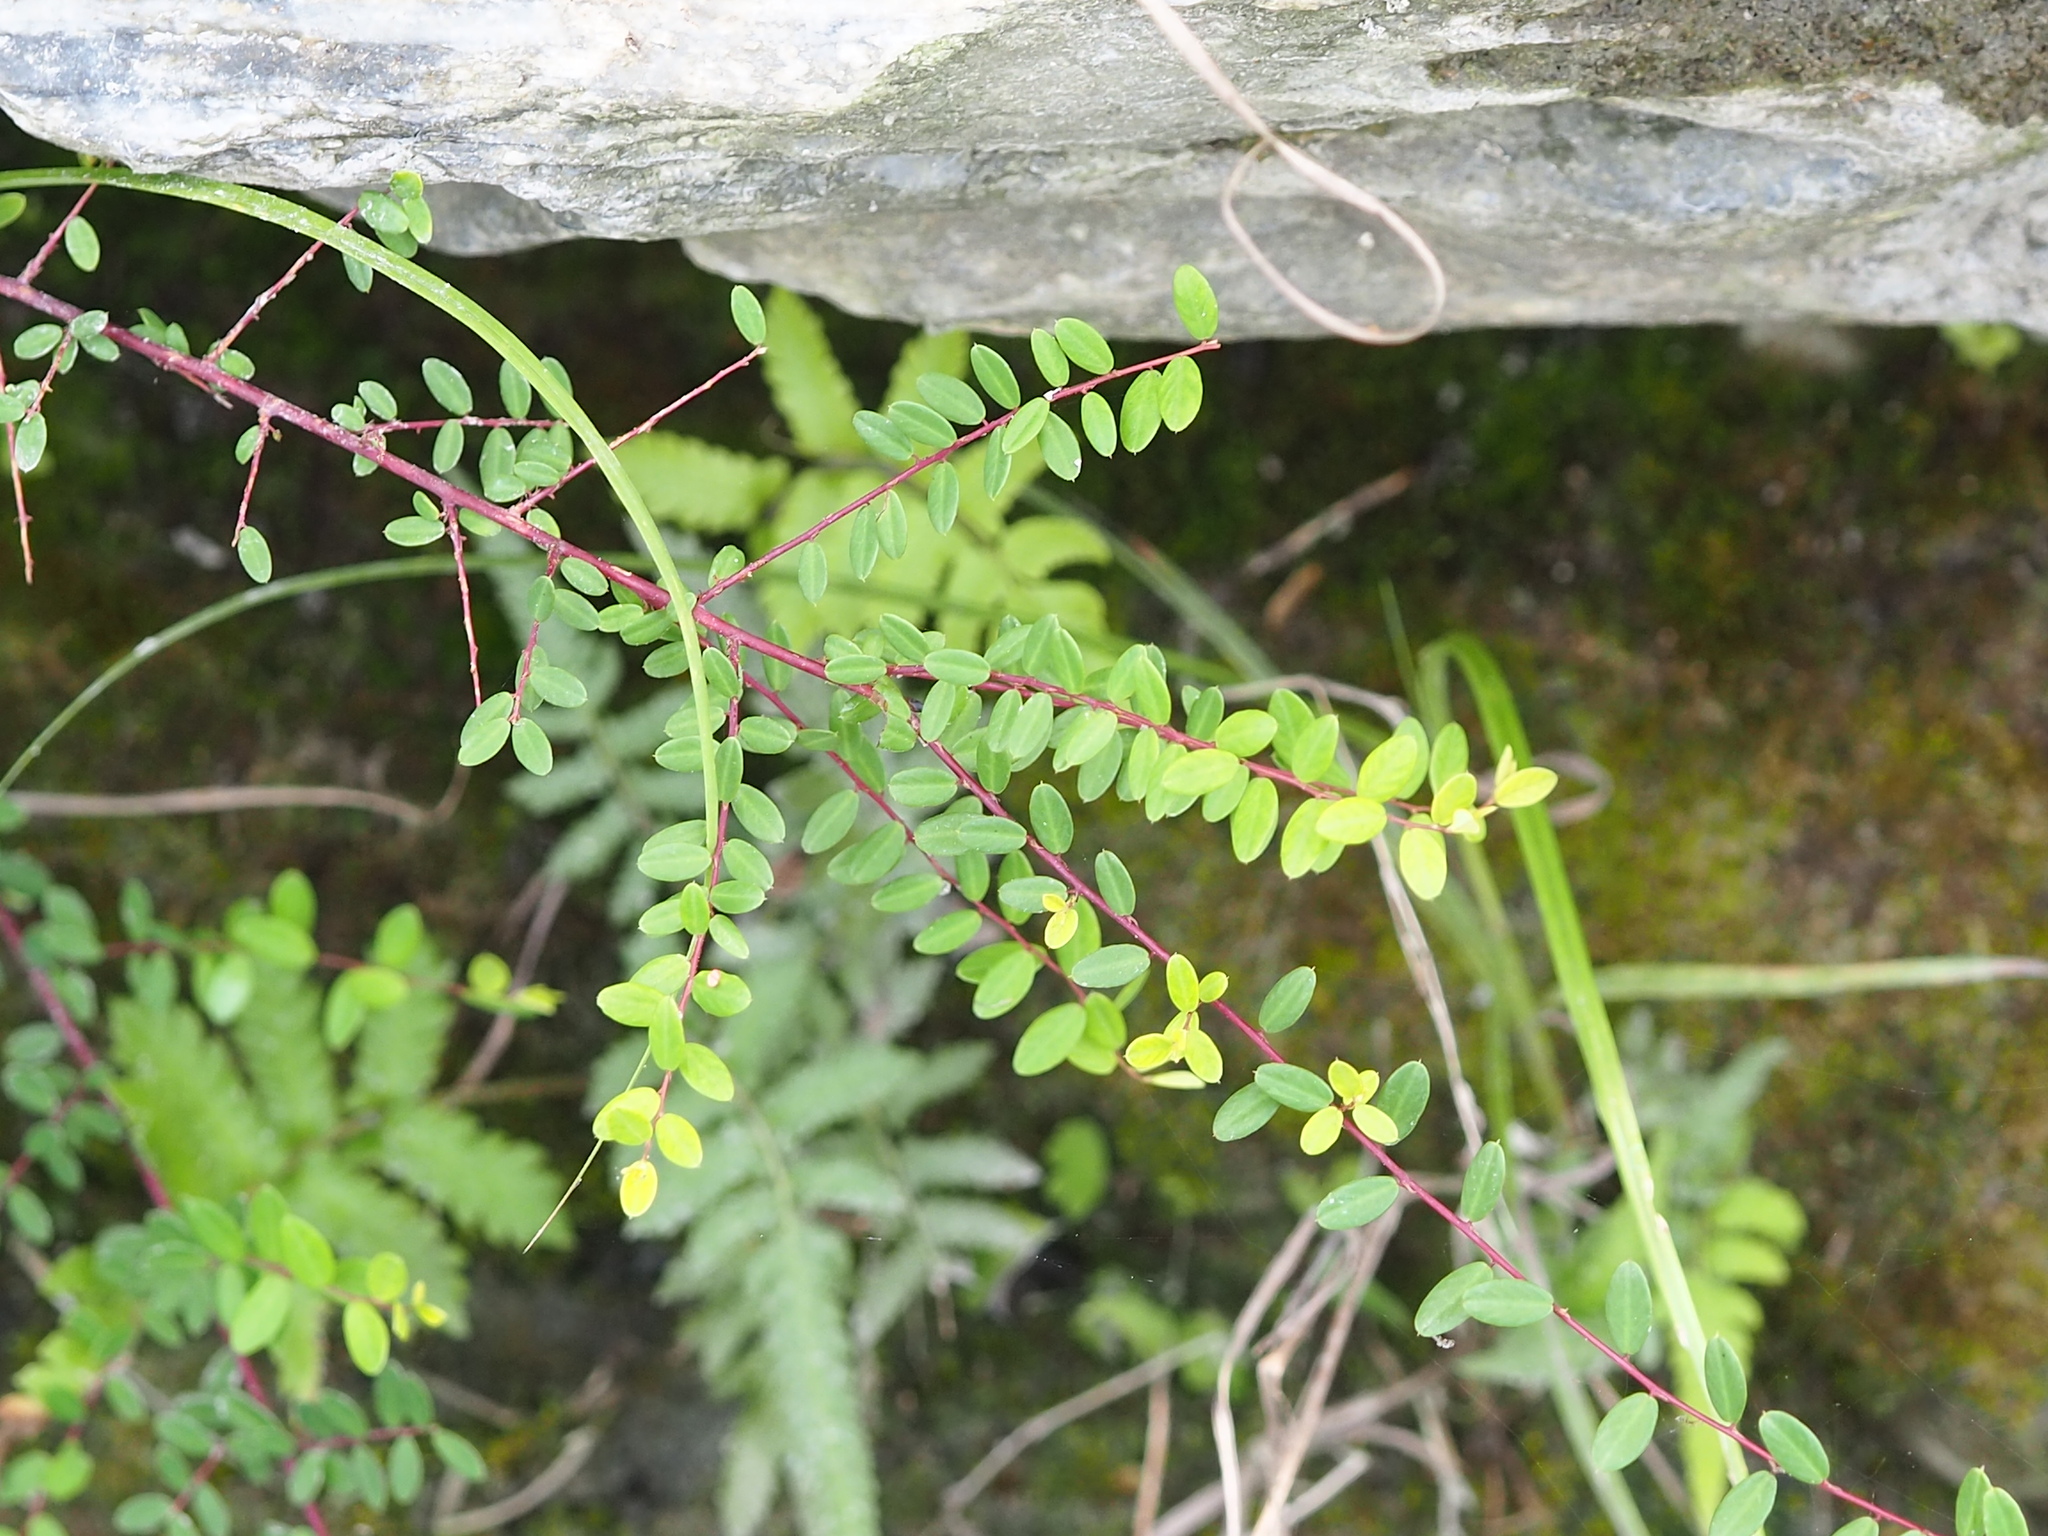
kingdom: Plantae
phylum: Tracheophyta
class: Magnoliopsida
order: Rosales
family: Rhamnaceae
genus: Berchemia
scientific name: Berchemia lineata
